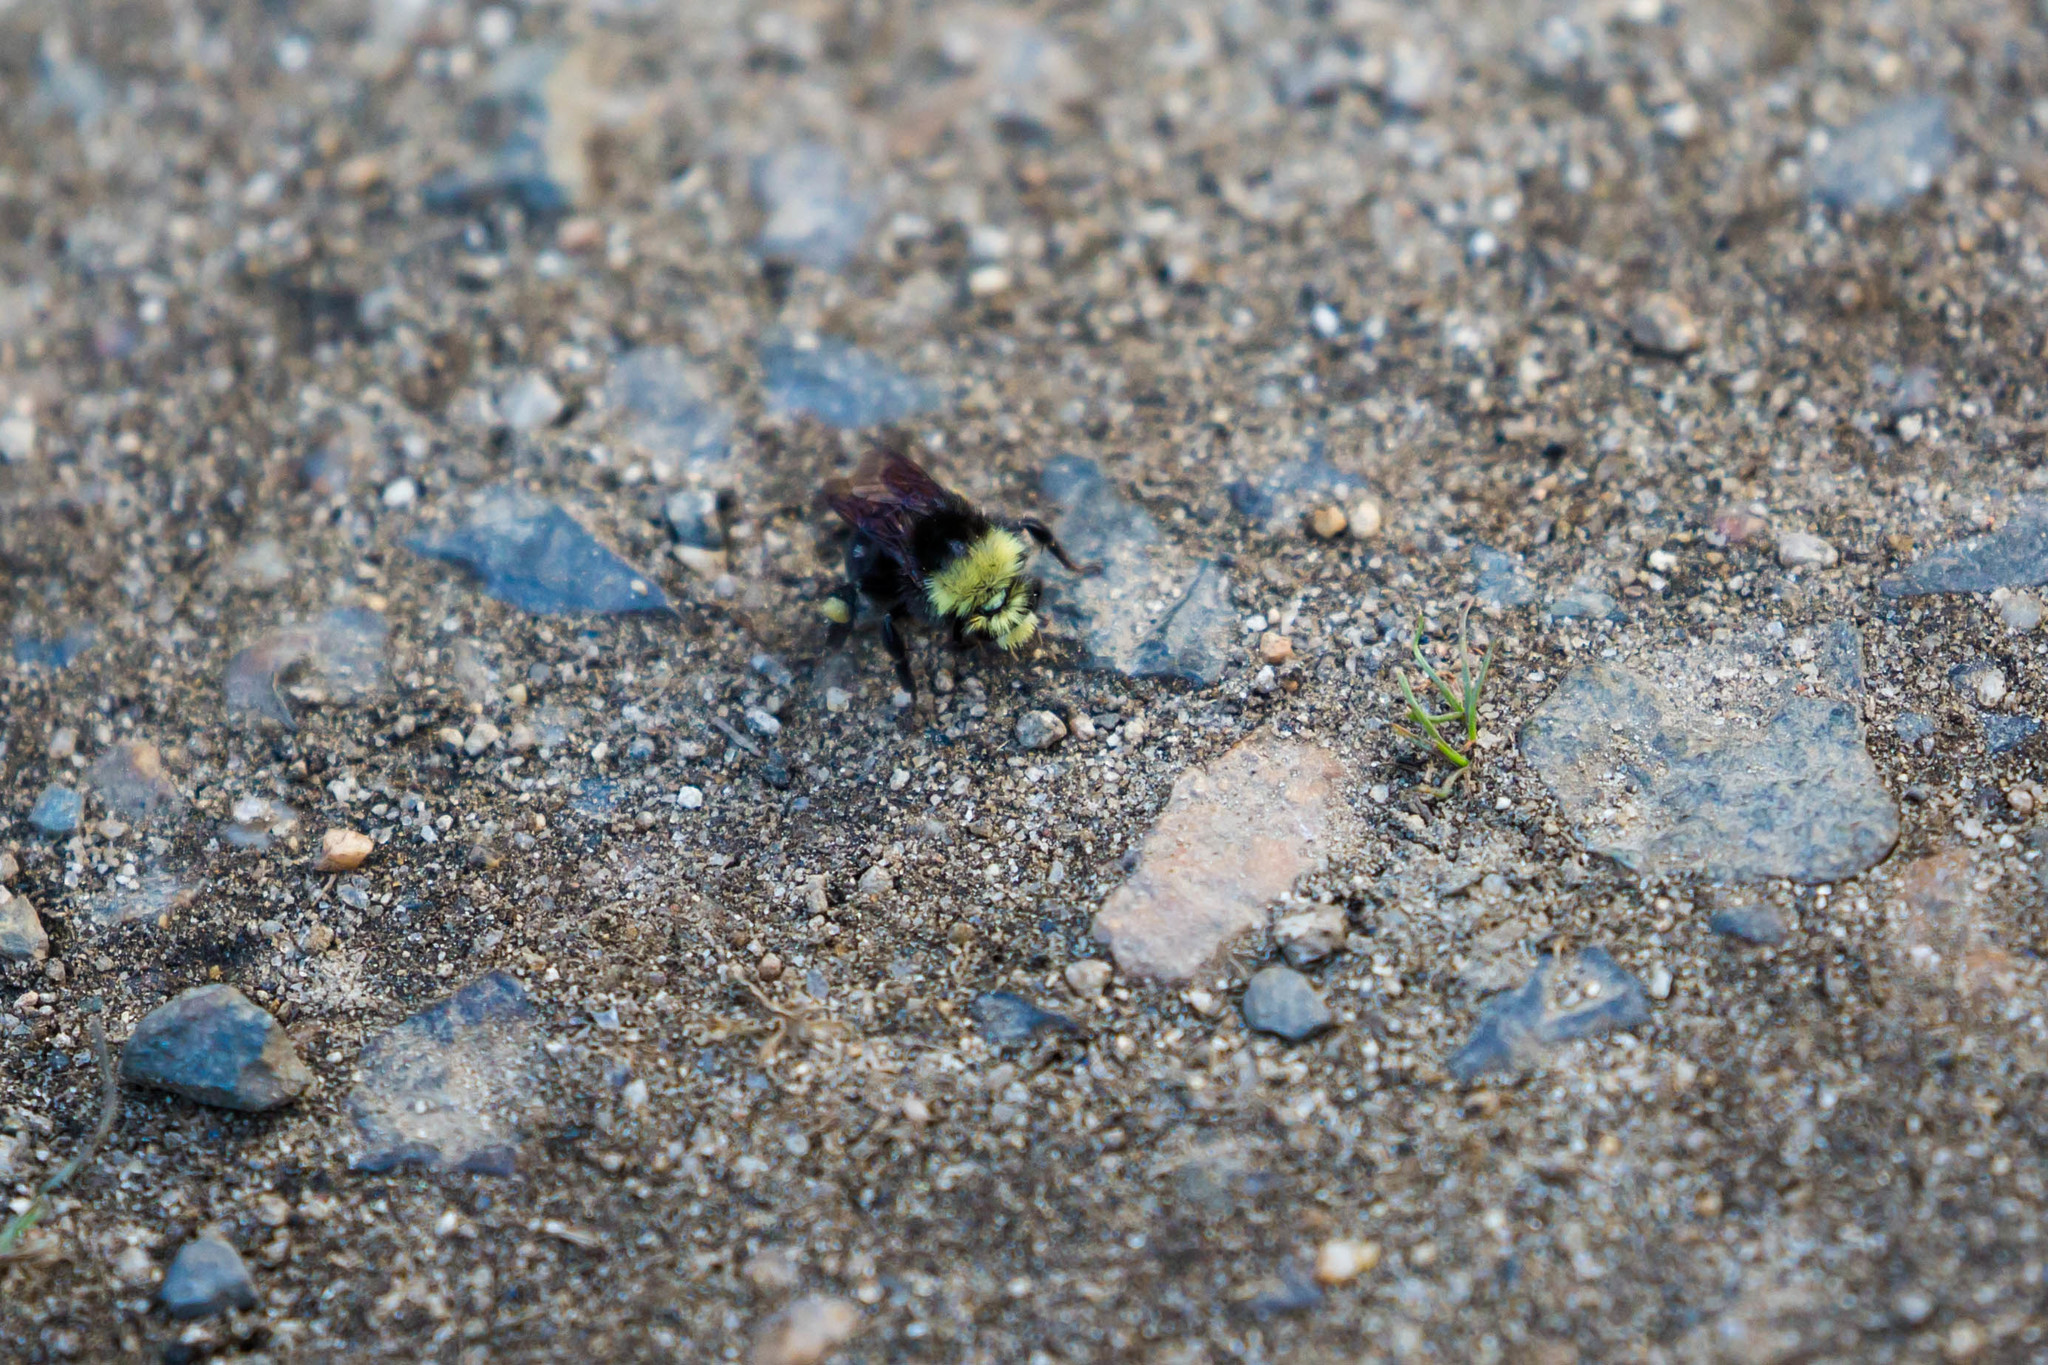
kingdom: Animalia
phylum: Arthropoda
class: Insecta
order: Hymenoptera
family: Apidae
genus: Bombus
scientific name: Bombus vosnesenskii
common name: Vosnesensky bumble bee
